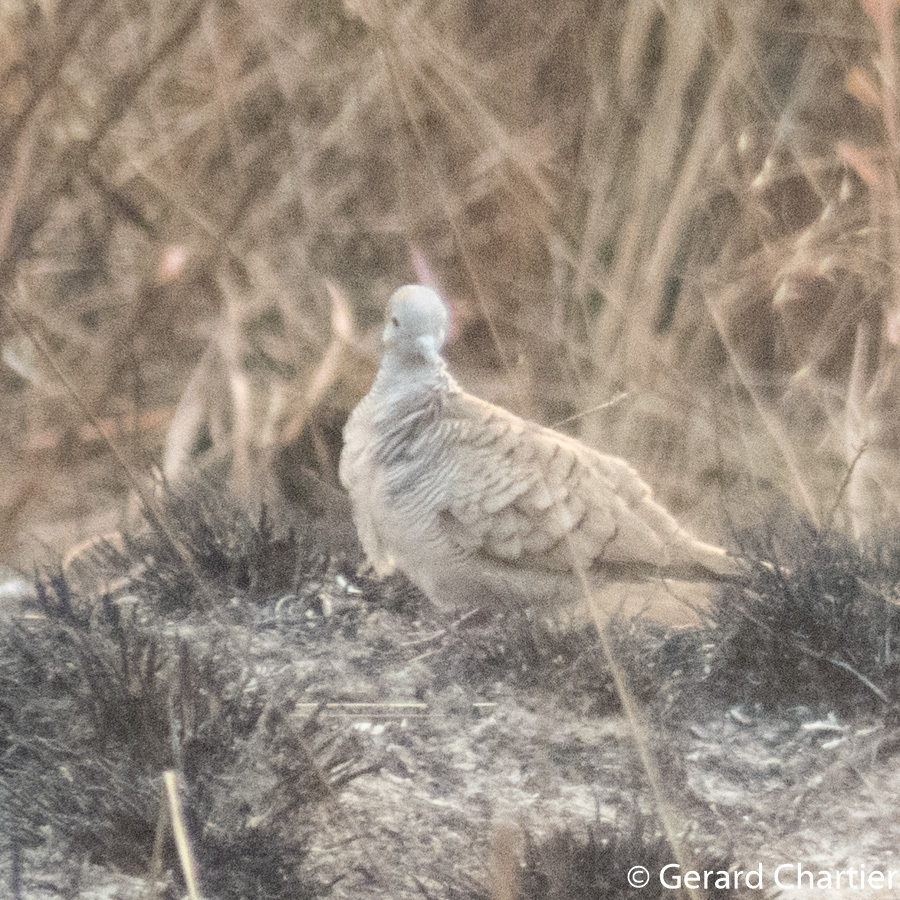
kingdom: Animalia
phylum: Chordata
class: Aves
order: Columbiformes
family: Columbidae
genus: Geopelia
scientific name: Geopelia striata
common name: Zebra dove
